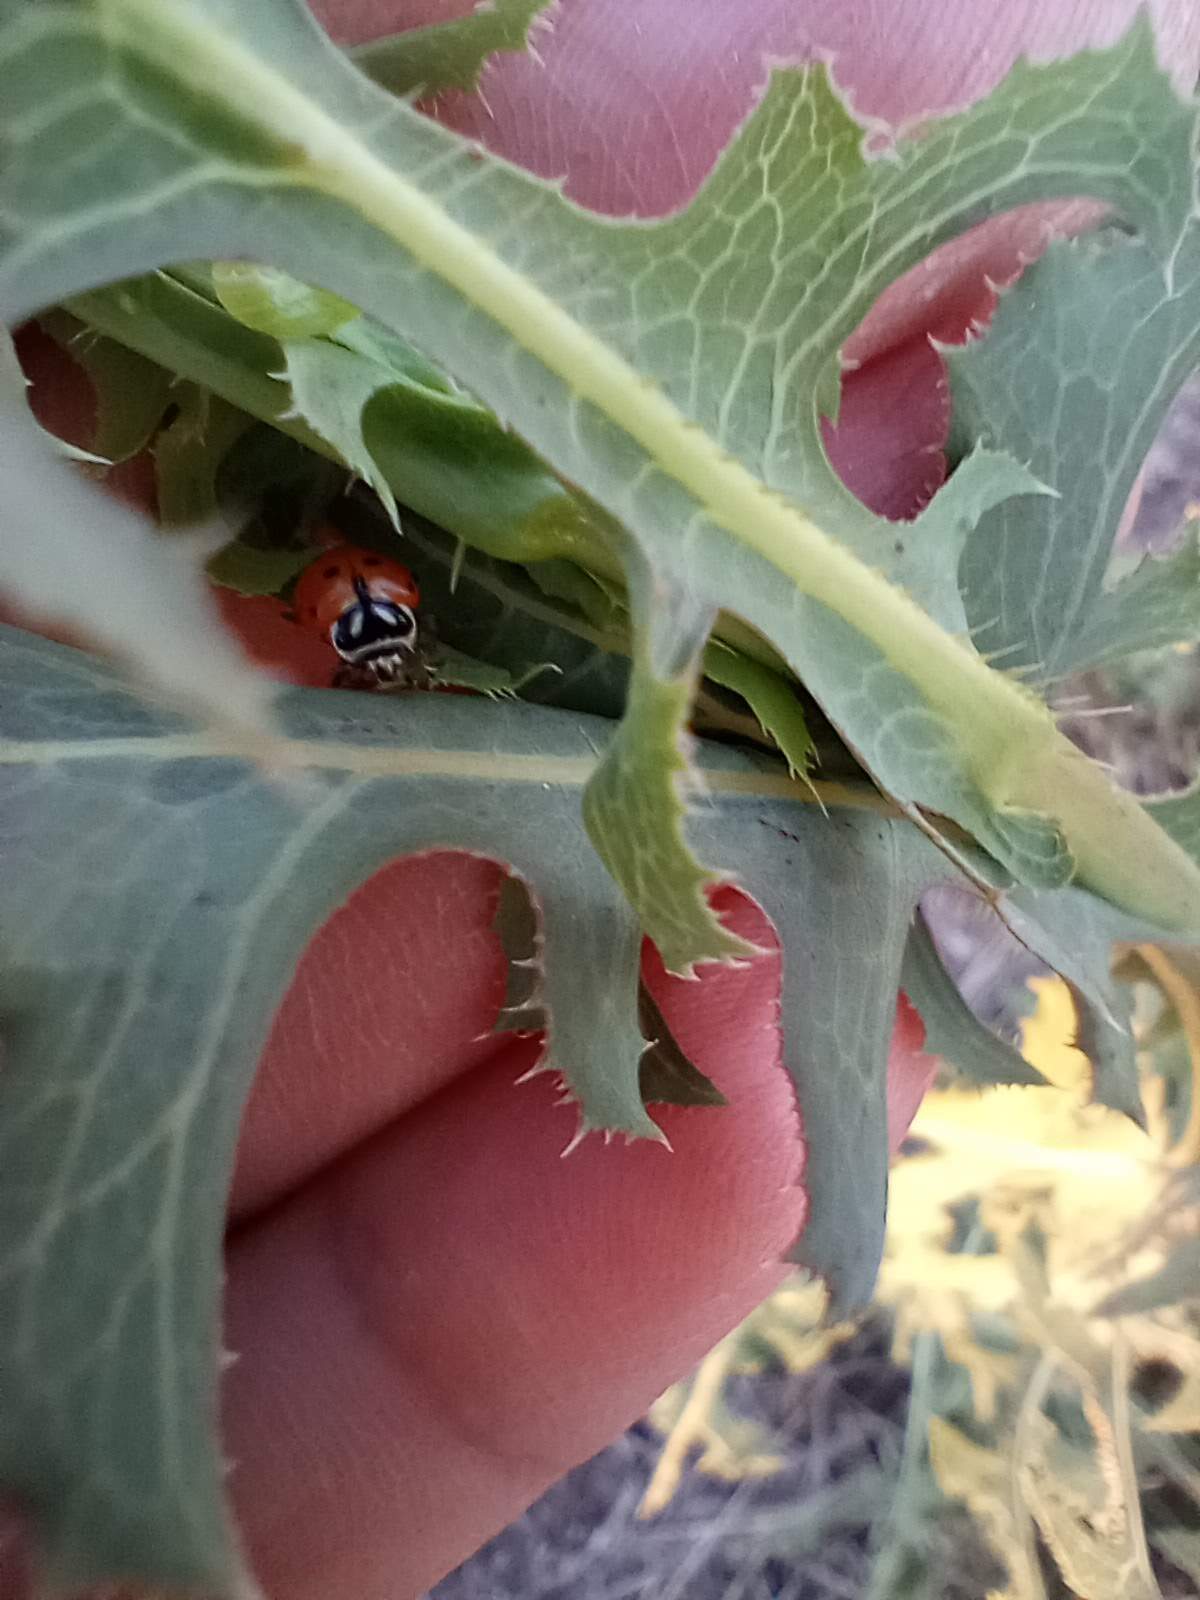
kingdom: Animalia
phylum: Arthropoda
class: Insecta
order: Coleoptera
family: Coccinellidae
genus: Hippodamia
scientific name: Hippodamia convergens
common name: Convergent lady beetle
